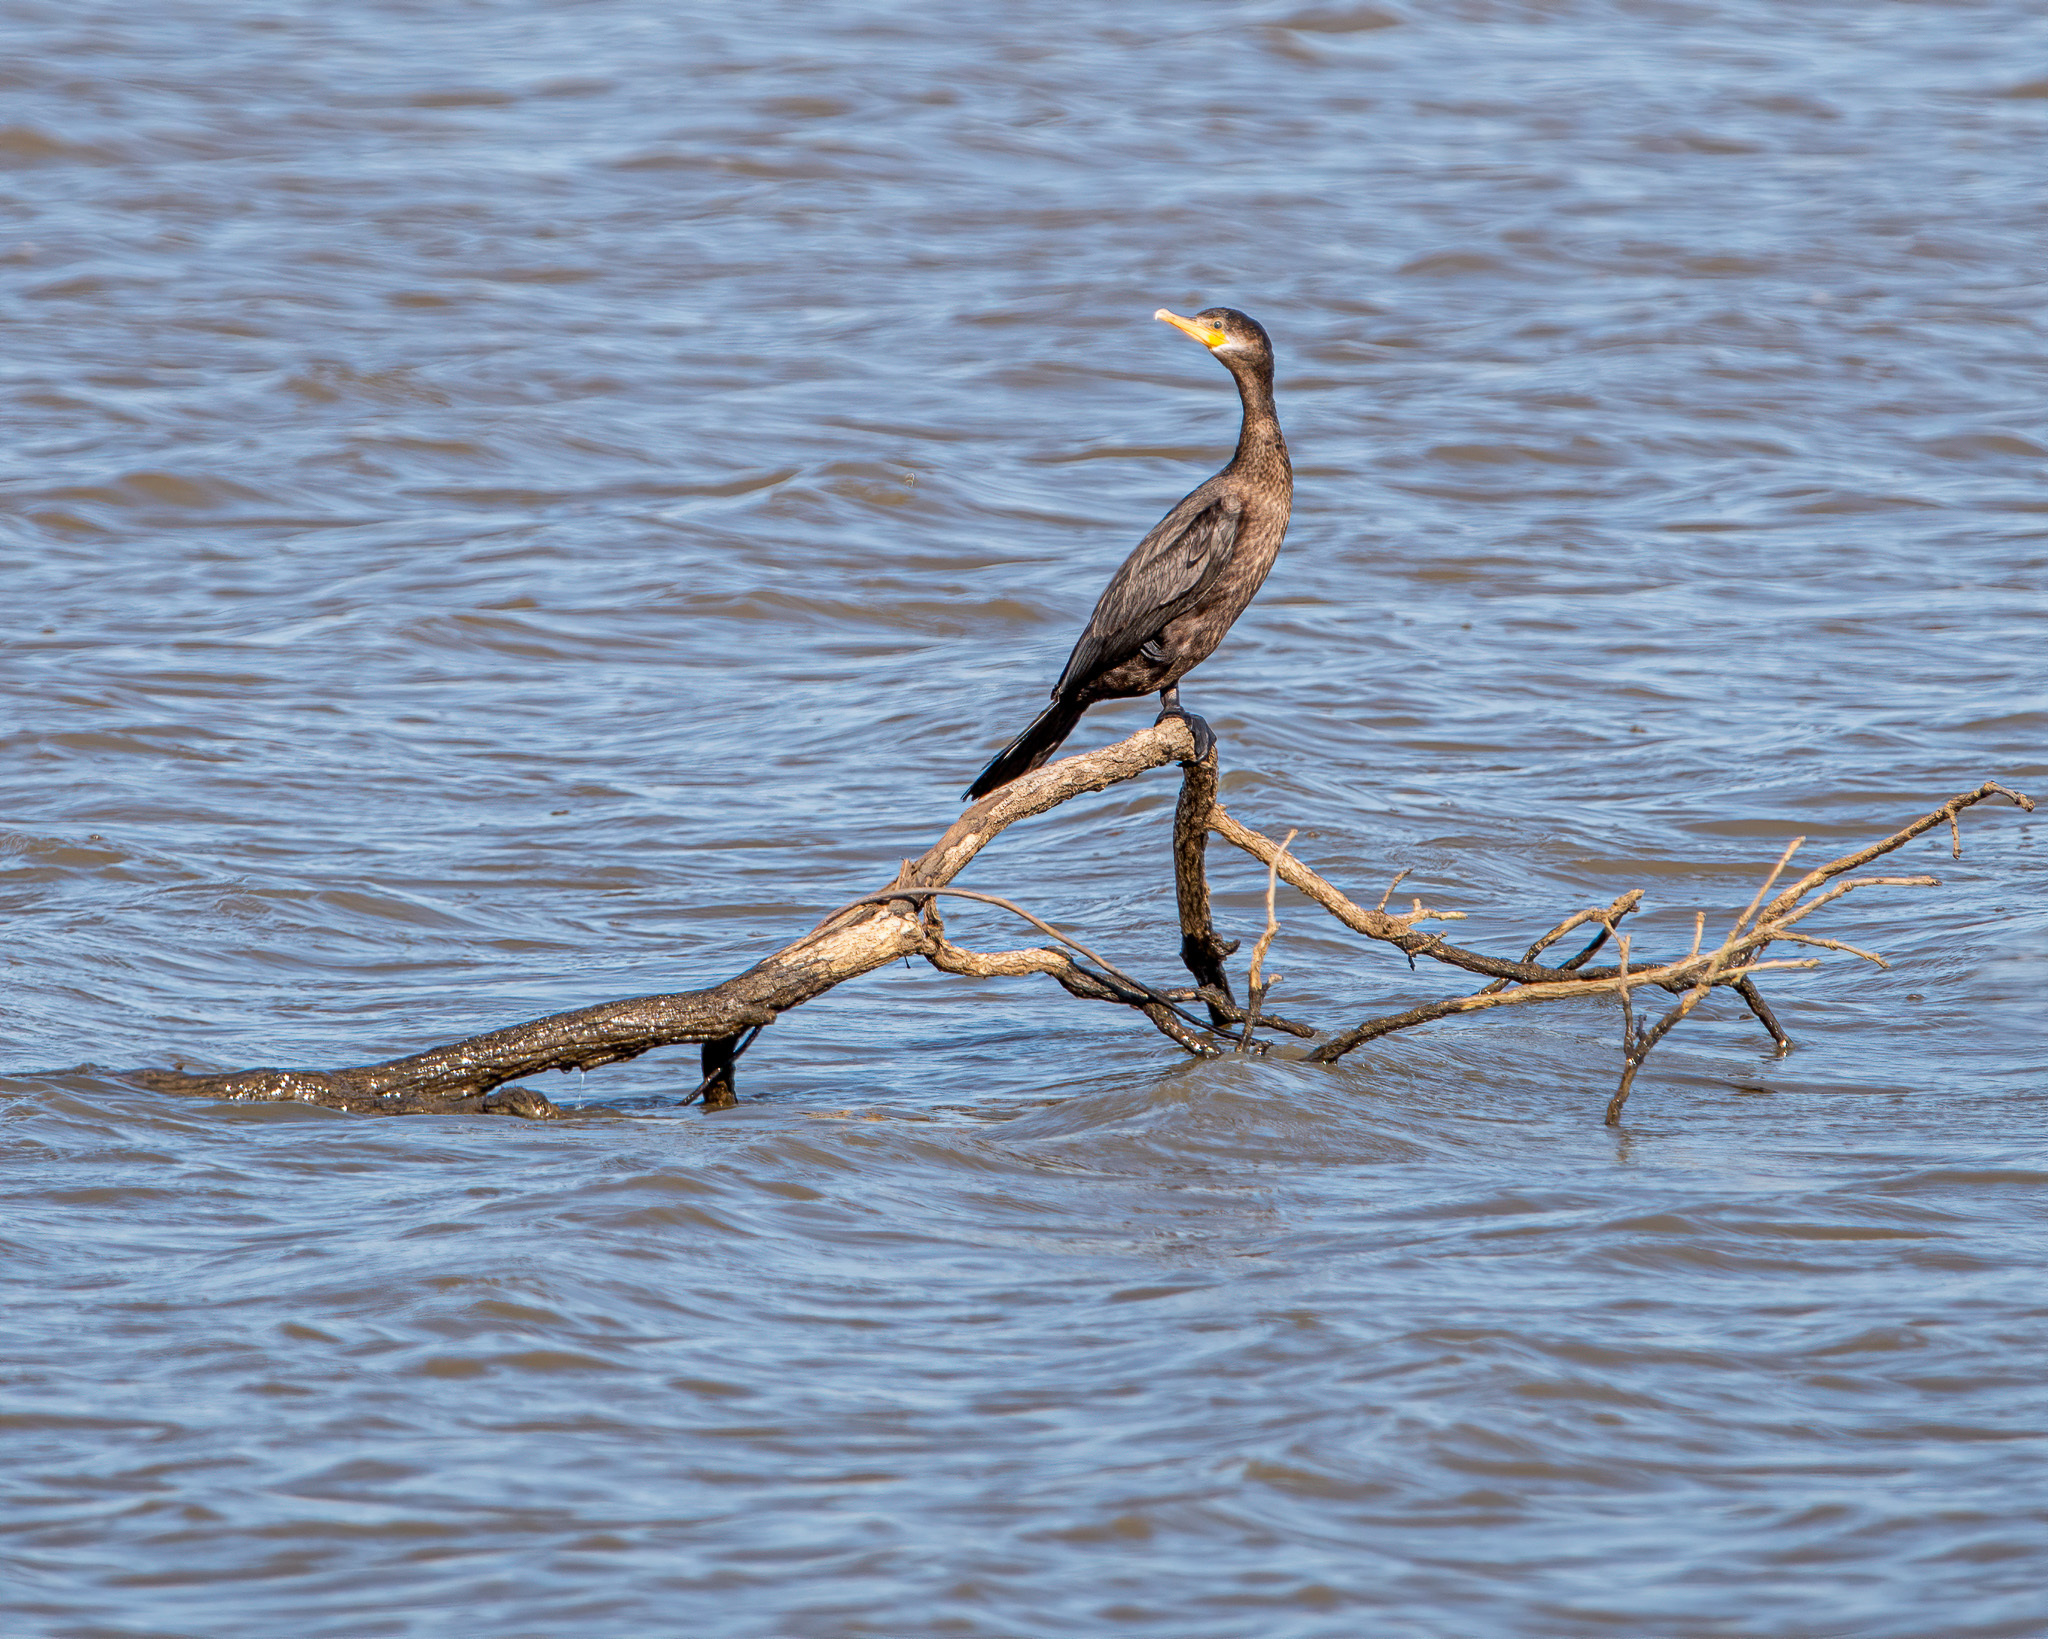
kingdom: Animalia
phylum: Chordata
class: Aves
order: Suliformes
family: Phalacrocoracidae
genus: Phalacrocorax
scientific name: Phalacrocorax brasilianus
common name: Neotropic cormorant
